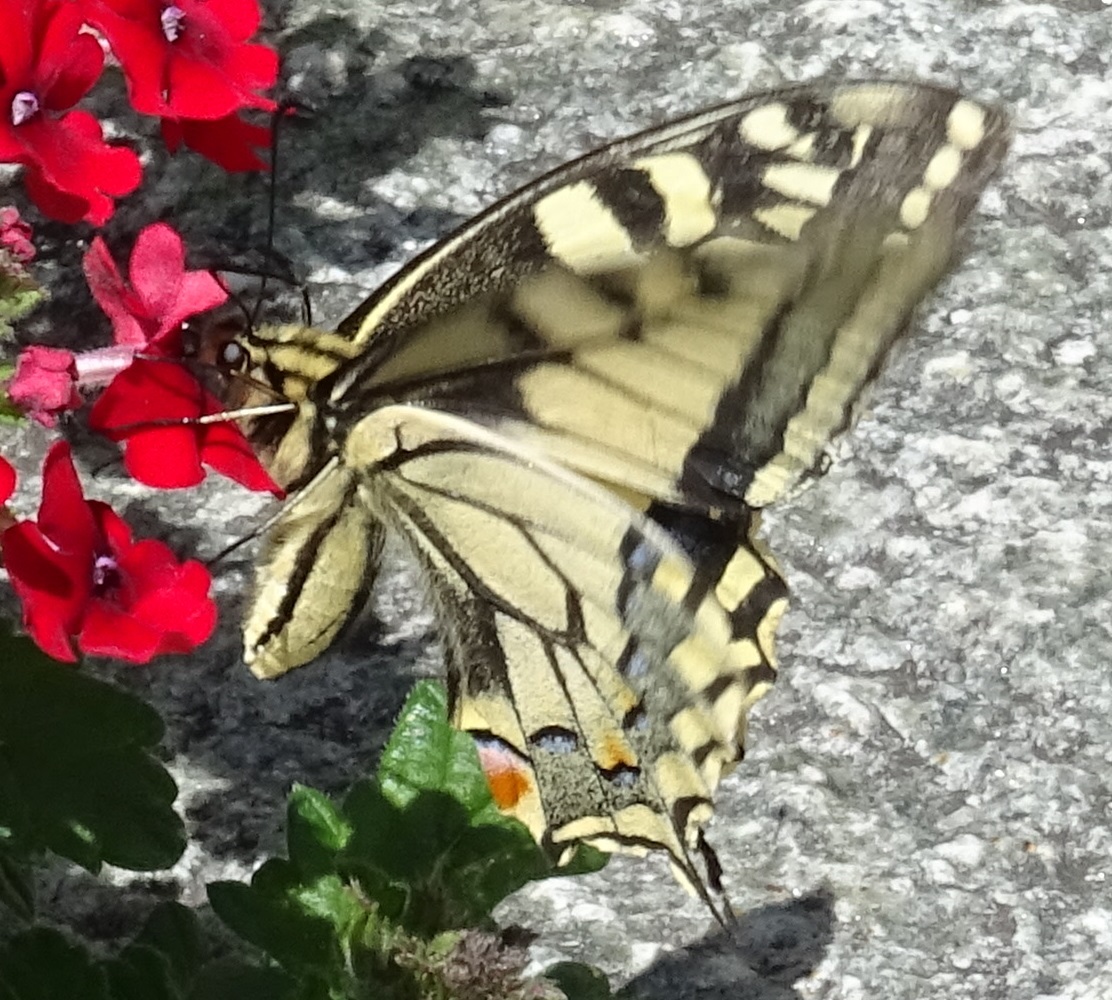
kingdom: Animalia
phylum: Arthropoda
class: Insecta
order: Lepidoptera
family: Papilionidae
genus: Papilio
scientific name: Papilio machaon
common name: Swallowtail
